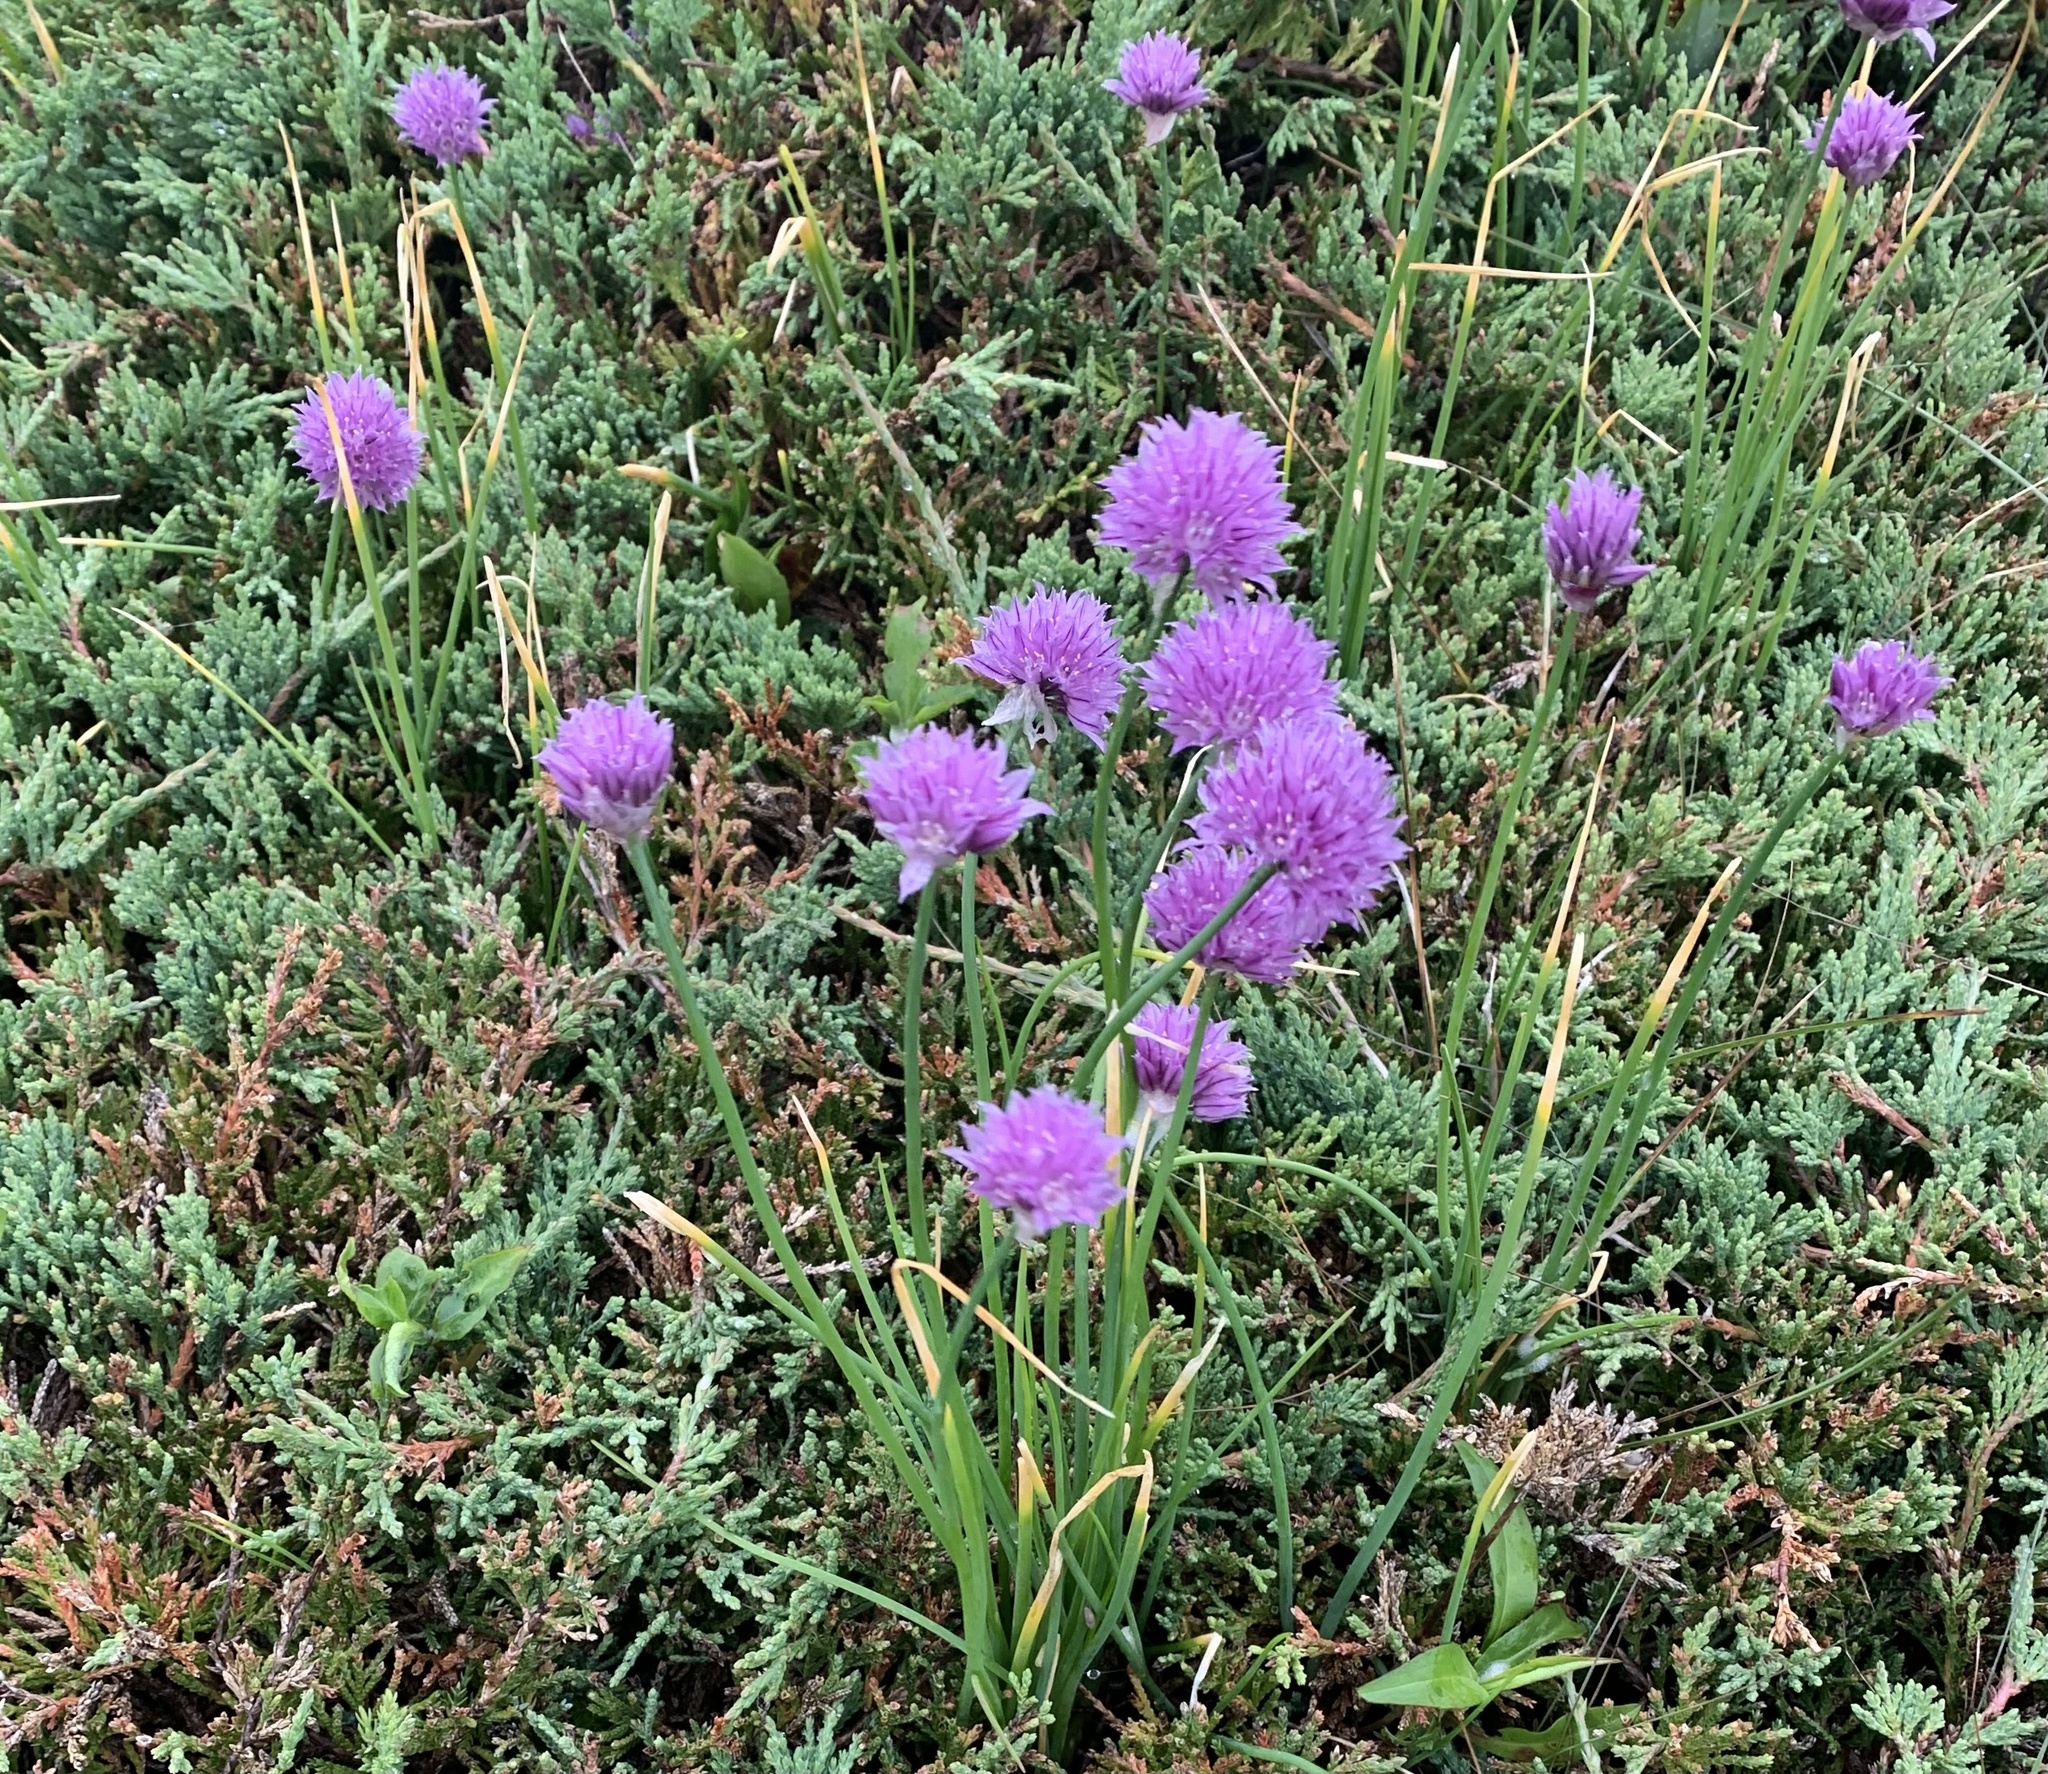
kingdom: Plantae
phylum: Tracheophyta
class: Liliopsida
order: Asparagales
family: Amaryllidaceae
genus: Allium
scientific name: Allium schoenoprasum
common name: Chives
